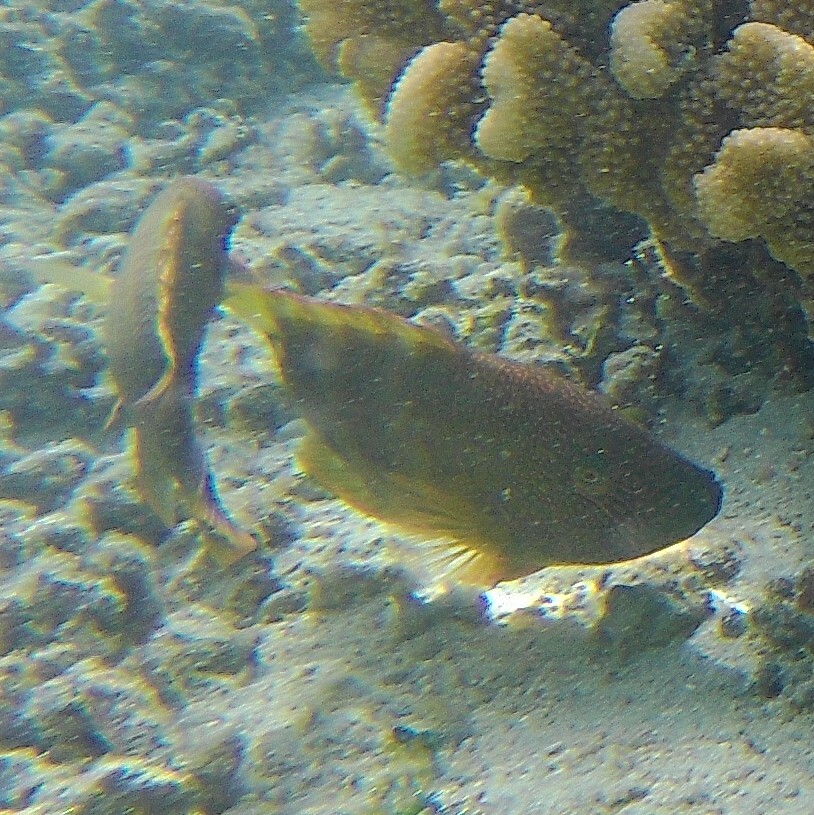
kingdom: Animalia
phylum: Chordata
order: Perciformes
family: Labridae
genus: Cheilinus
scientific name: Cheilinus trilobatus
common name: Tripletail maori wrasse
